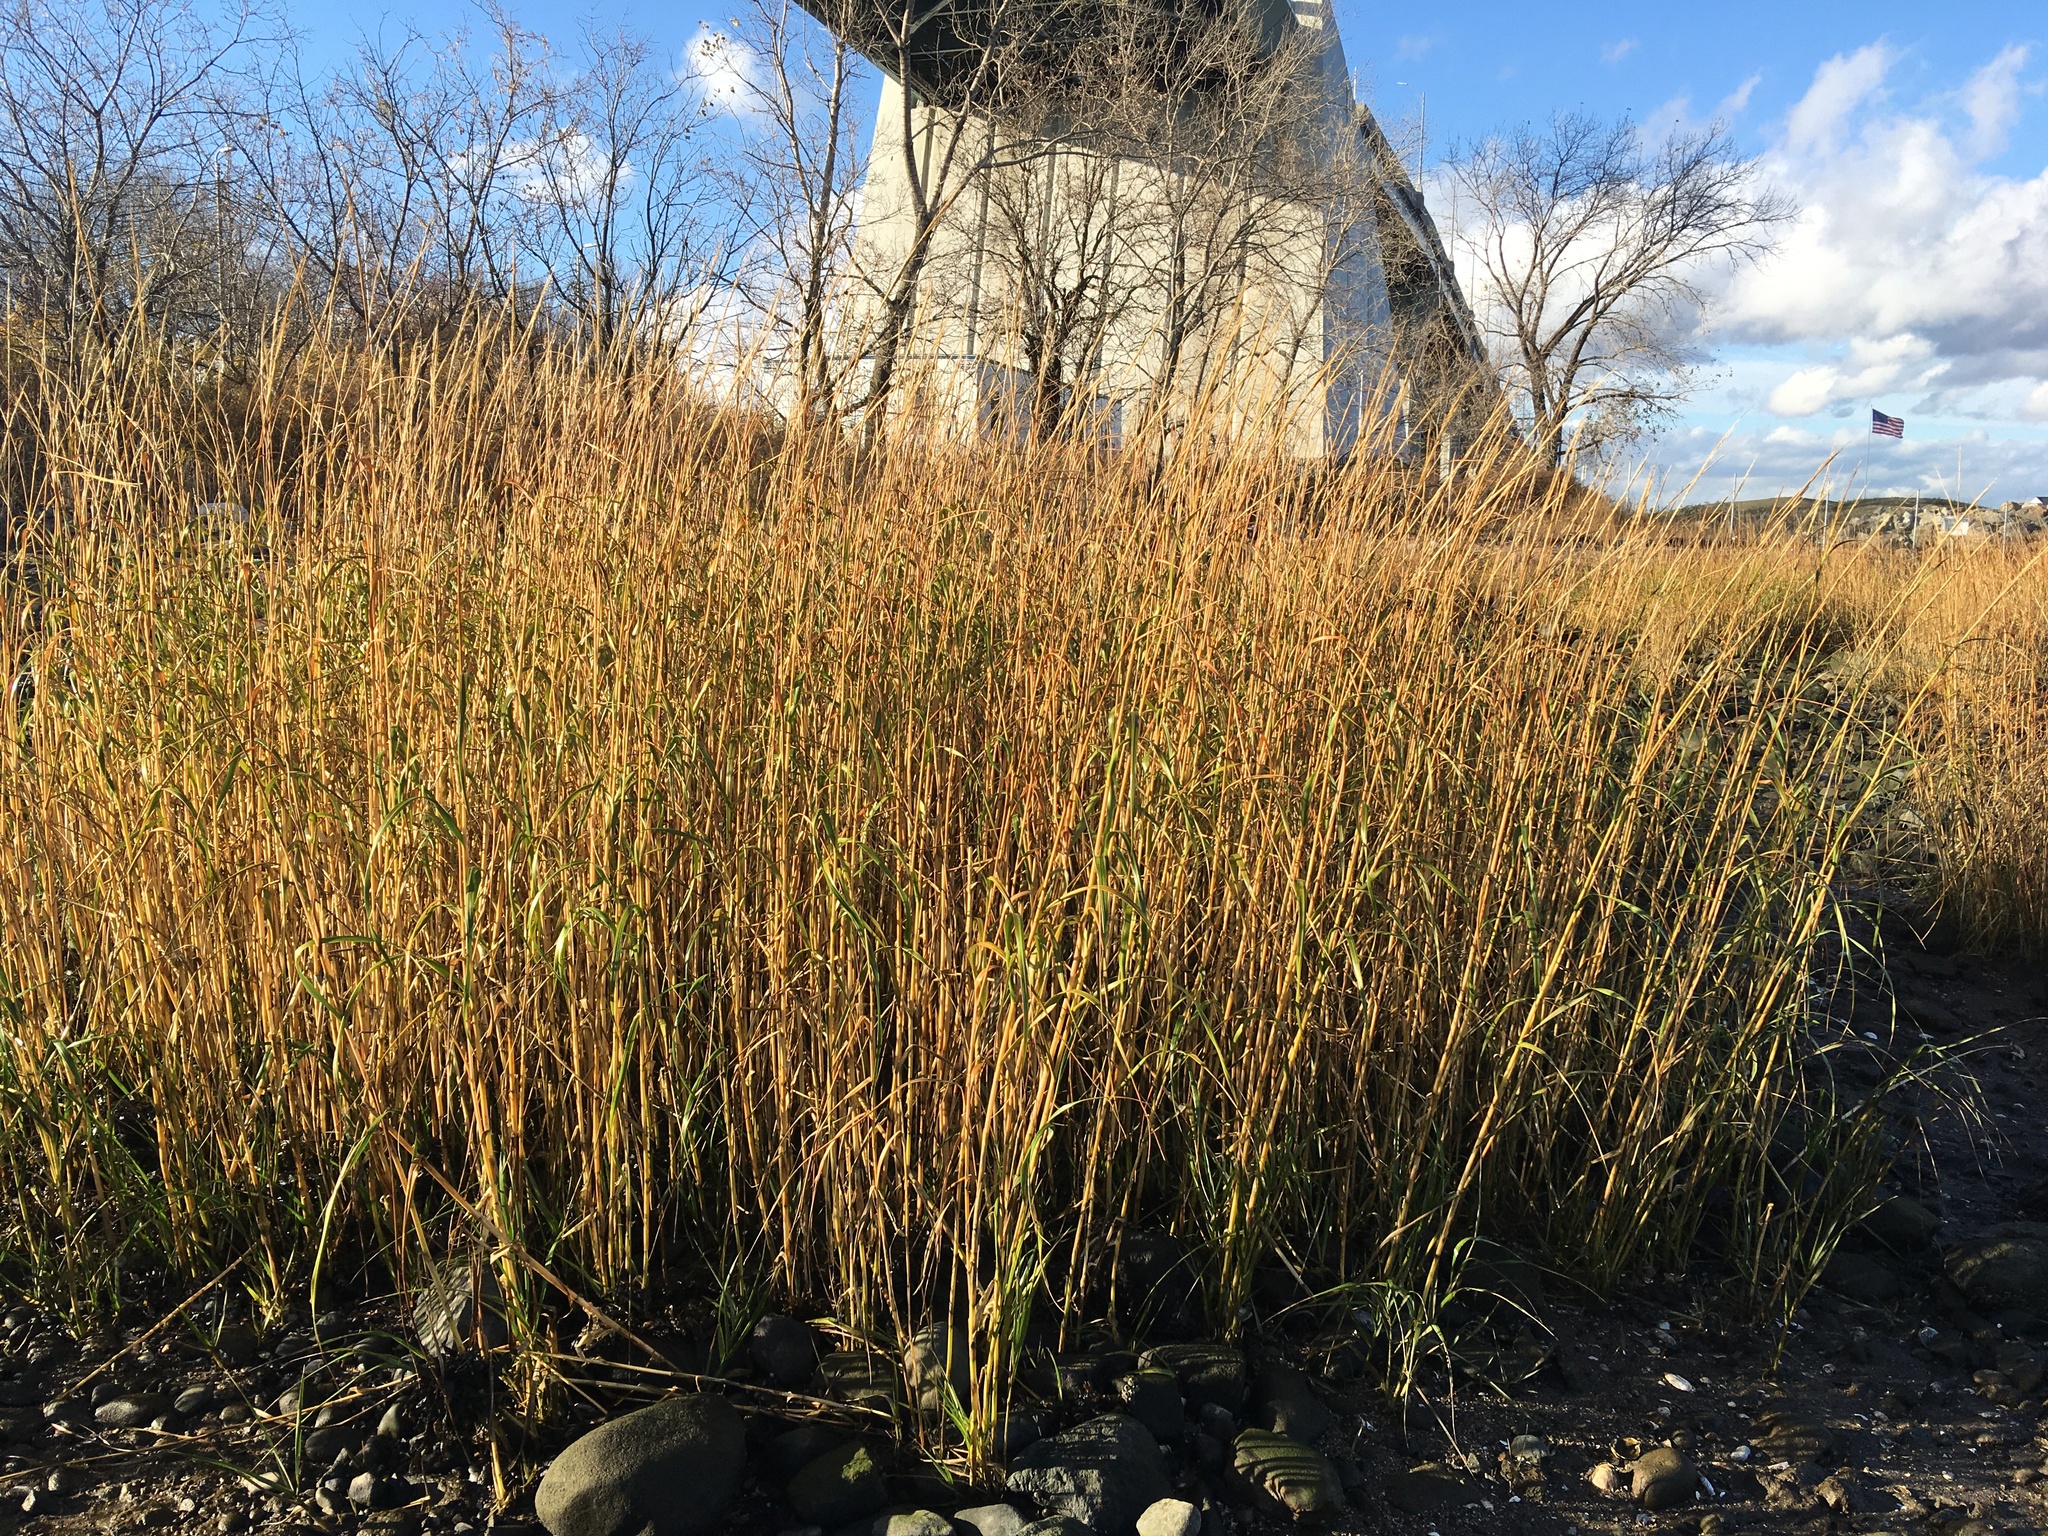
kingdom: Plantae
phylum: Tracheophyta
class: Liliopsida
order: Poales
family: Poaceae
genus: Sporobolus
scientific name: Sporobolus alterniflorus
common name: Atlantic cordgrass
